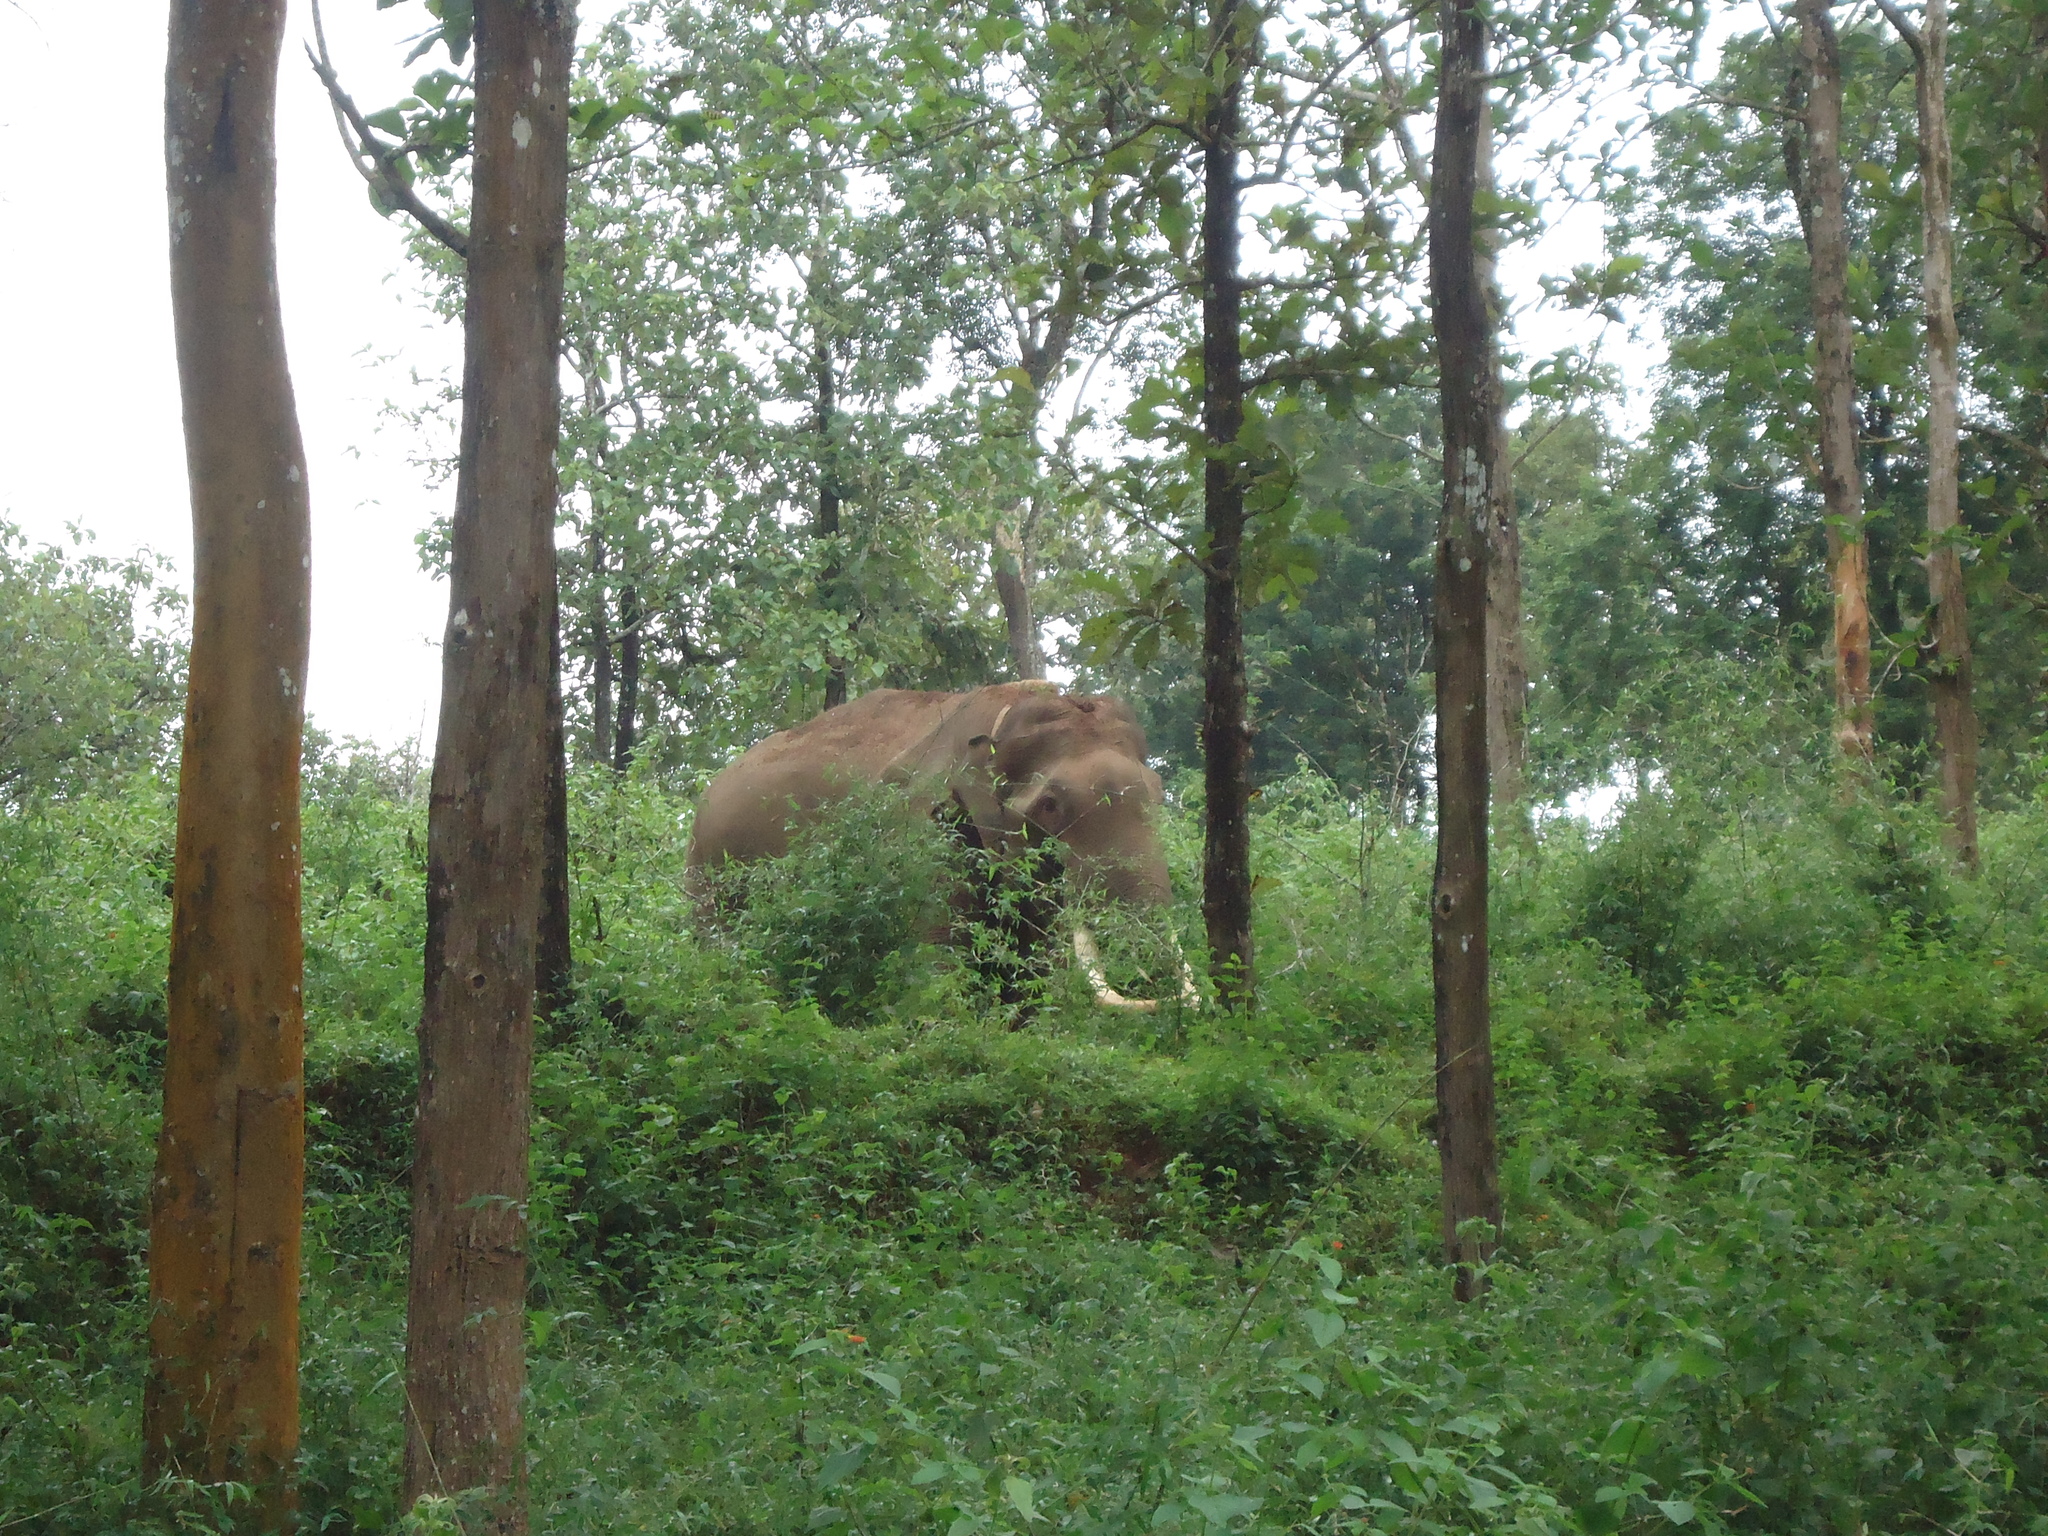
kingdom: Animalia
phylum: Chordata
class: Mammalia
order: Proboscidea
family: Elephantidae
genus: Elephas
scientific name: Elephas maximus
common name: Asian elephant
